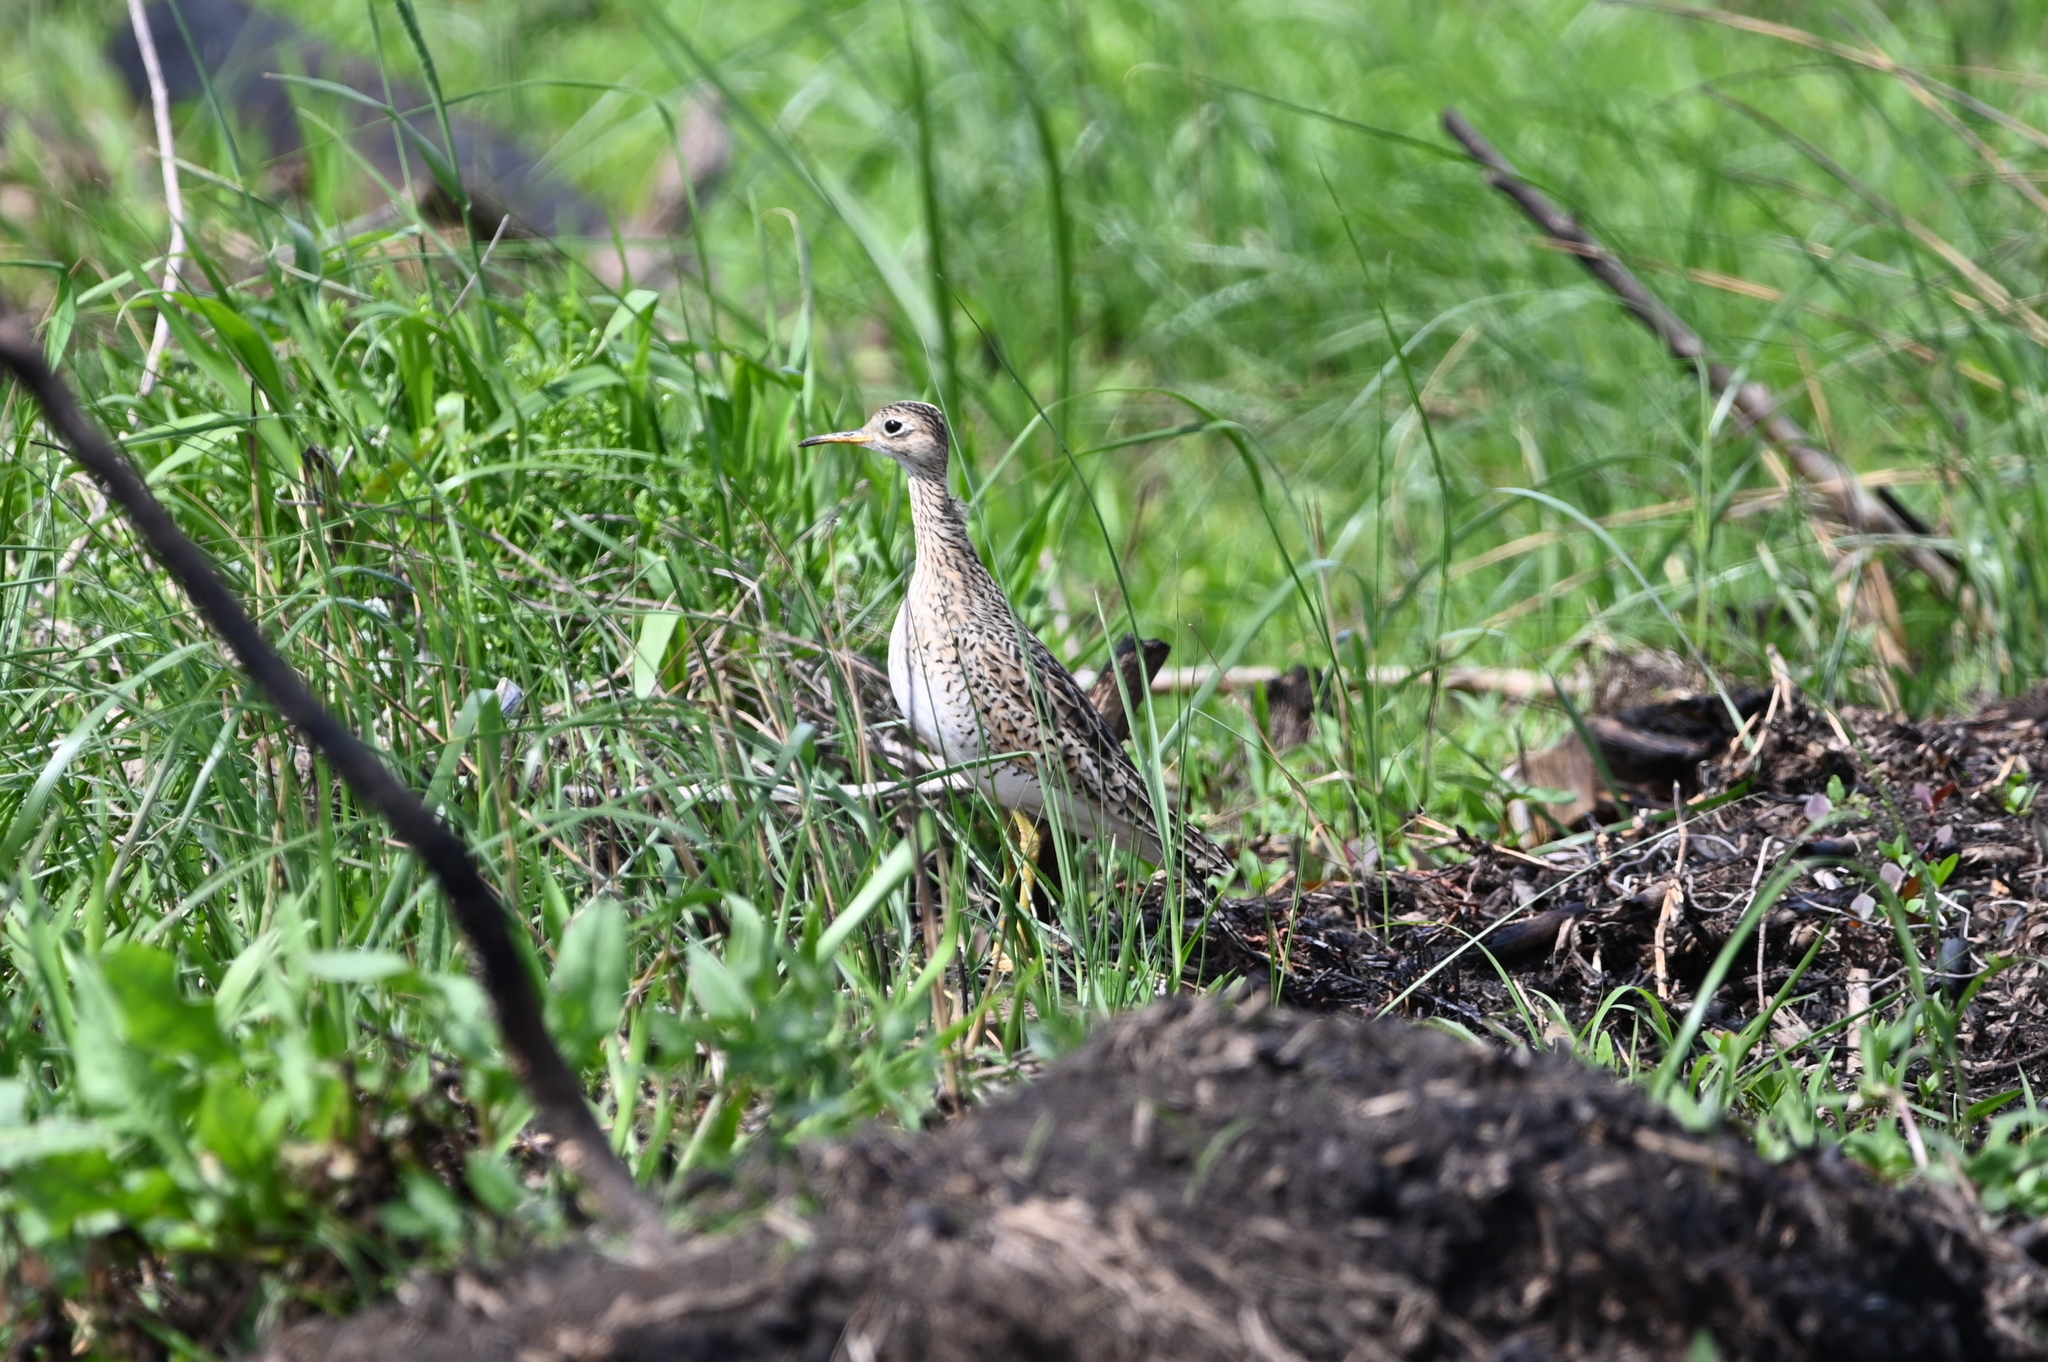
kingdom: Animalia
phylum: Chordata
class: Aves
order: Charadriiformes
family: Scolopacidae
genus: Bartramia
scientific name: Bartramia longicauda
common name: Upland sandpiper
